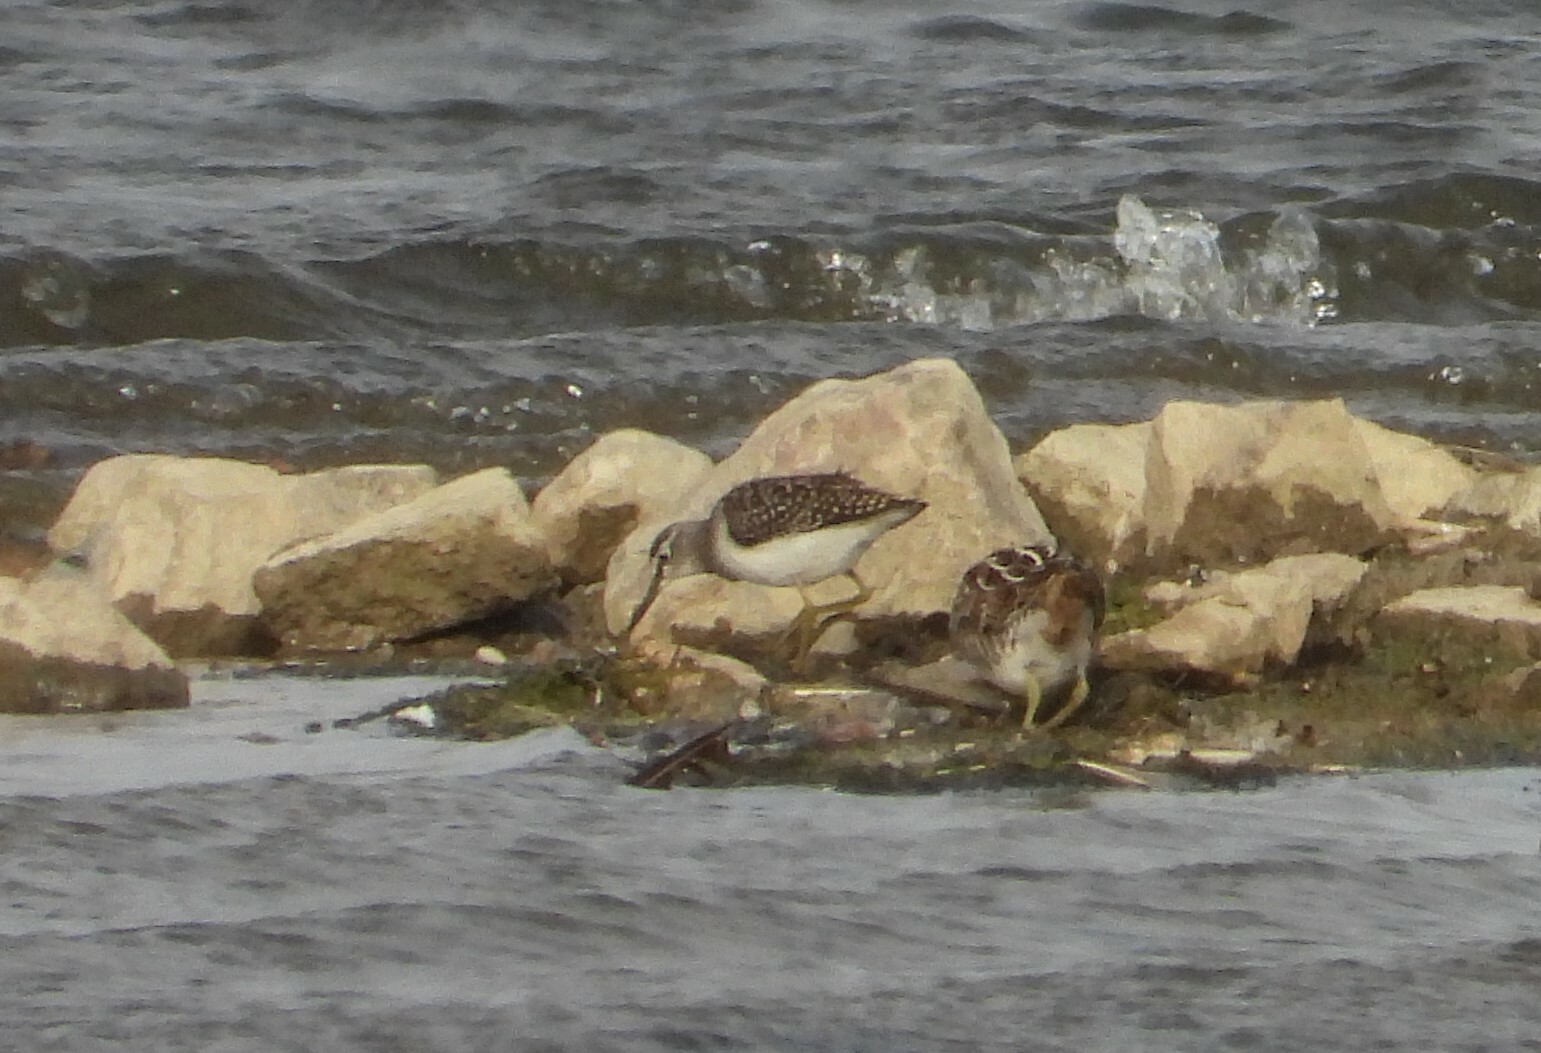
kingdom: Animalia
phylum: Chordata
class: Aves
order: Charadriiformes
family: Scolopacidae
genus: Tringa
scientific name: Tringa glareola
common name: Wood sandpiper
